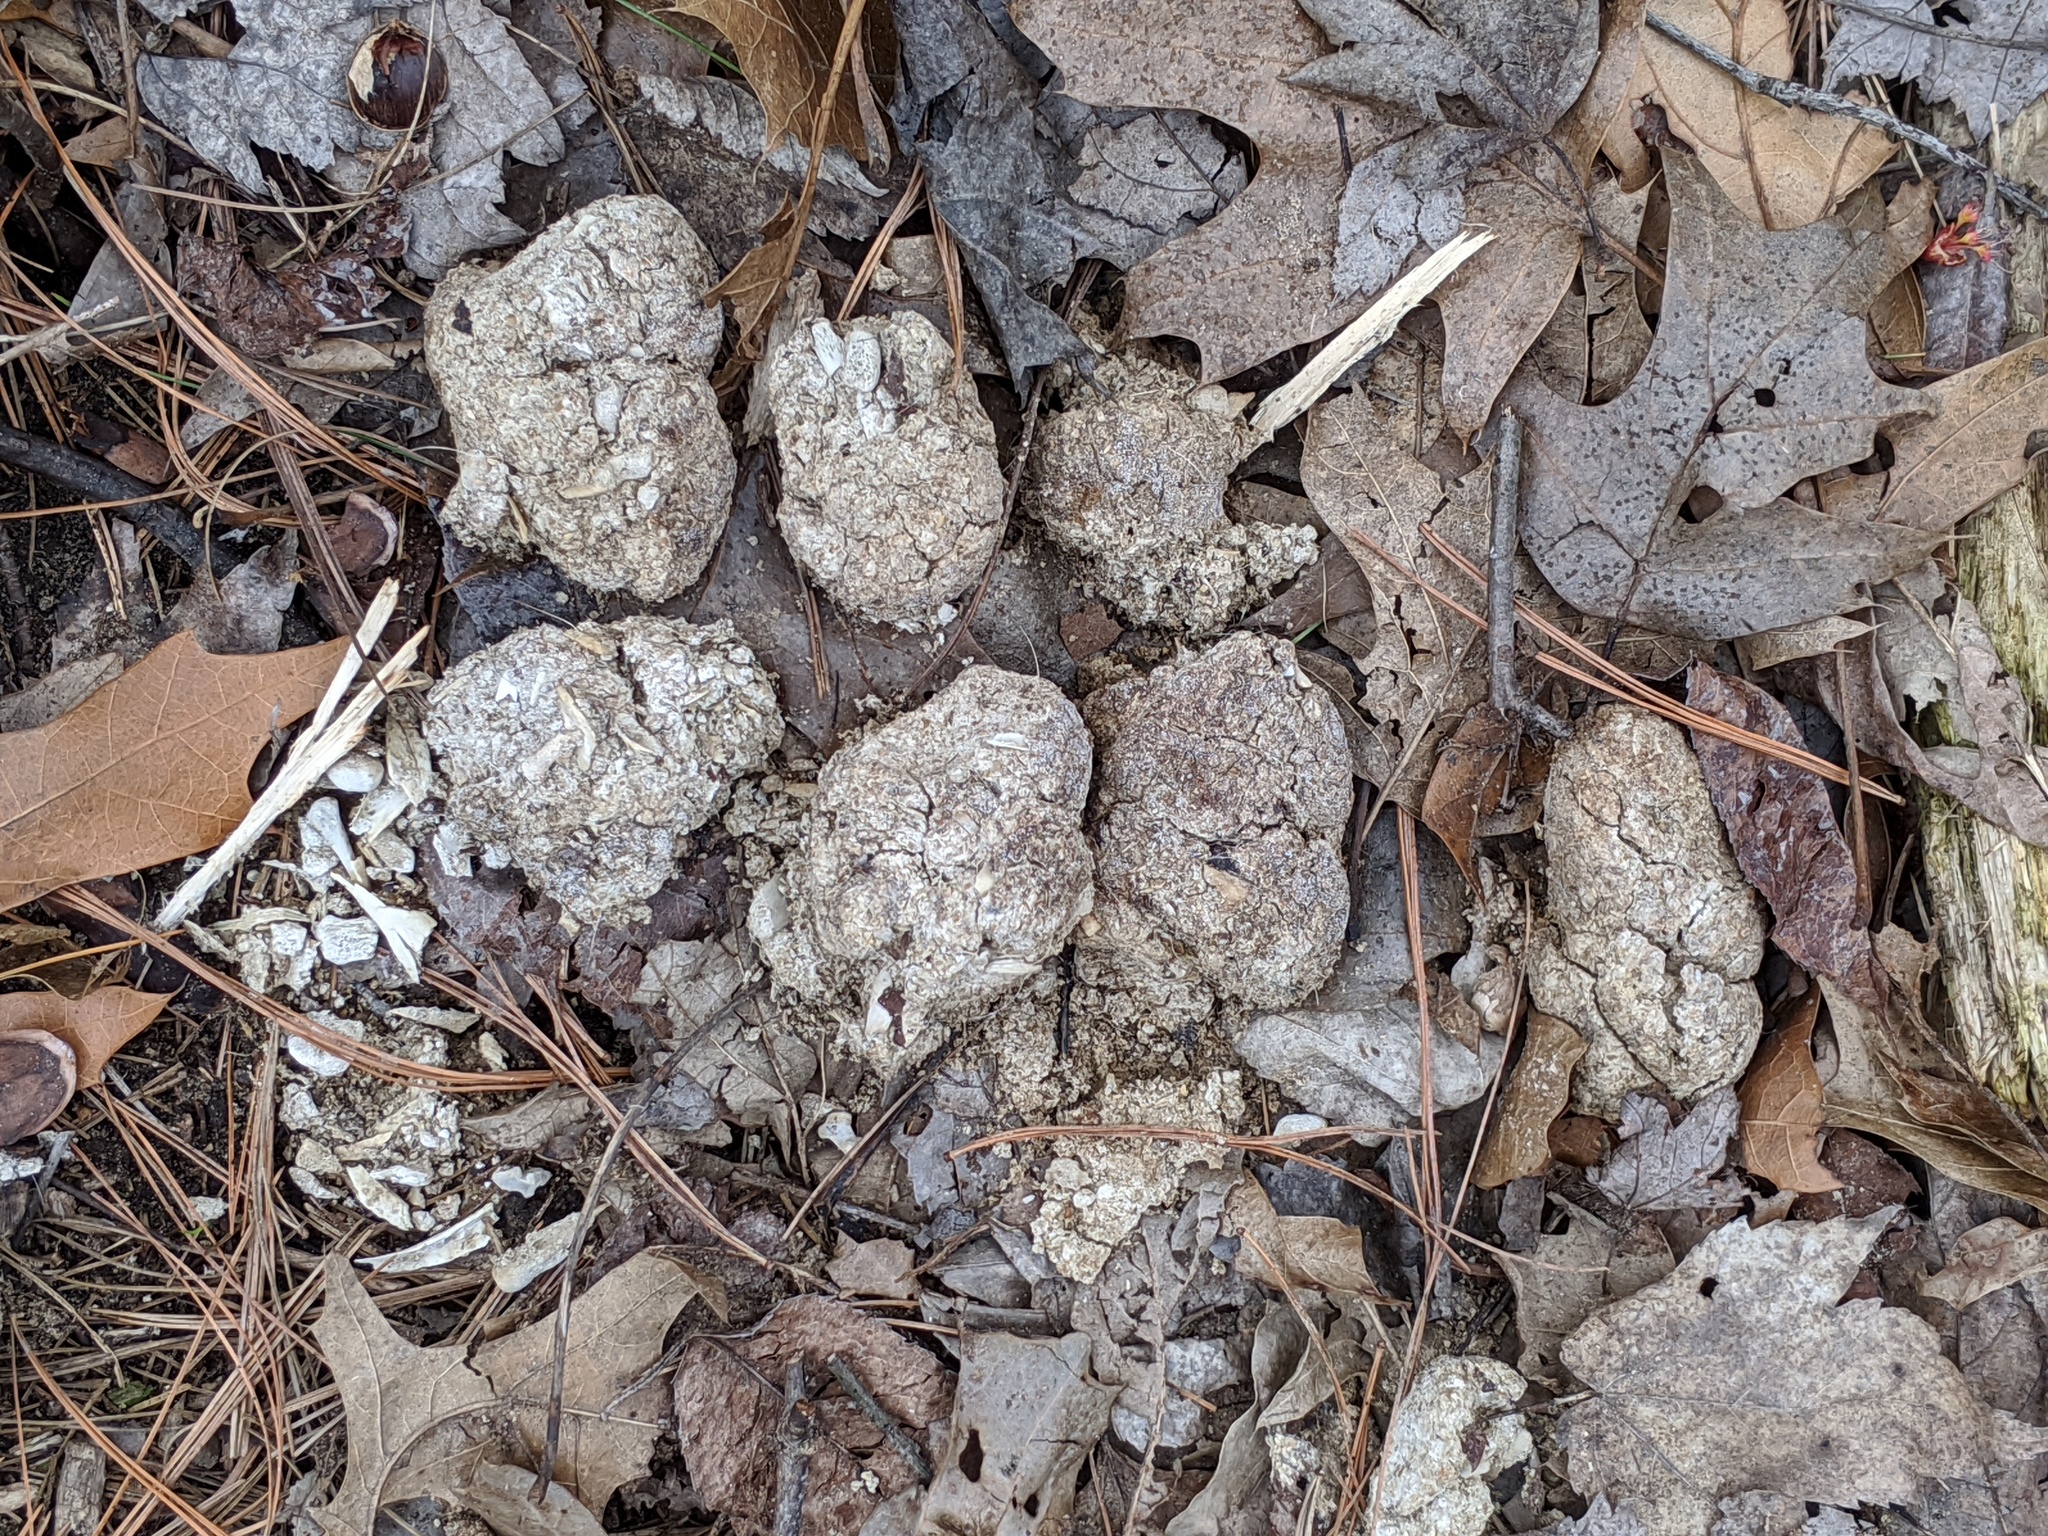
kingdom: Animalia
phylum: Chordata
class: Mammalia
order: Carnivora
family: Canidae
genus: Canis
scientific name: Canis latrans
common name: Coyote
